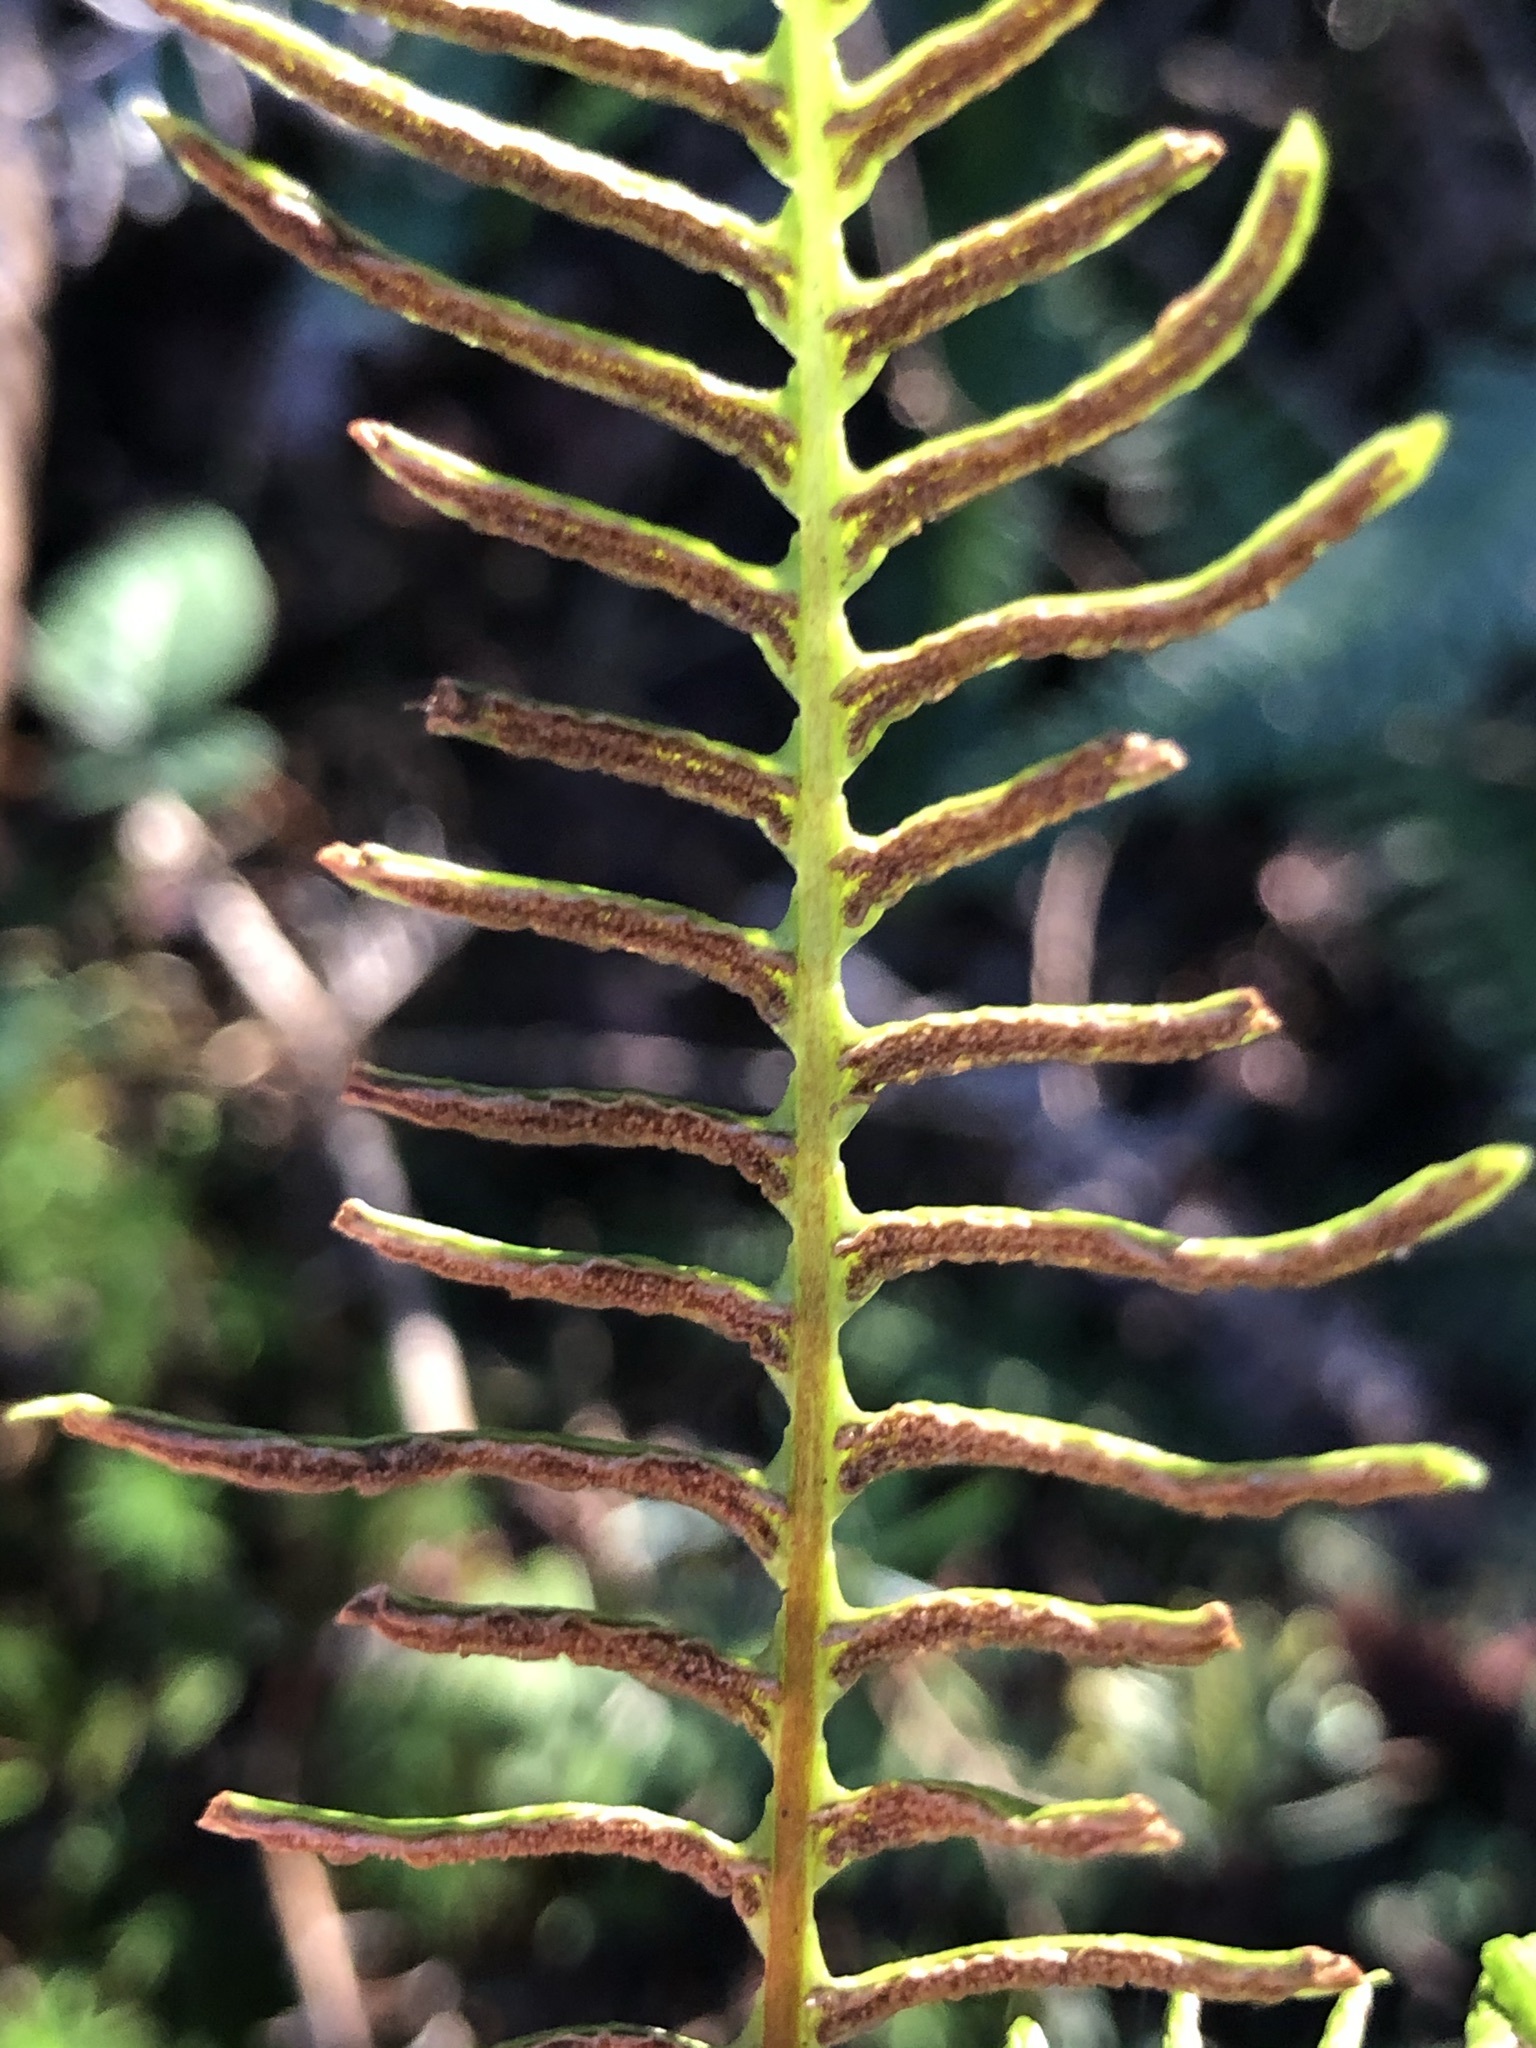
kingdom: Plantae
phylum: Tracheophyta
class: Polypodiopsida
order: Polypodiales
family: Blechnaceae
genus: Struthiopteris
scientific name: Struthiopteris spicant
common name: Deer fern
